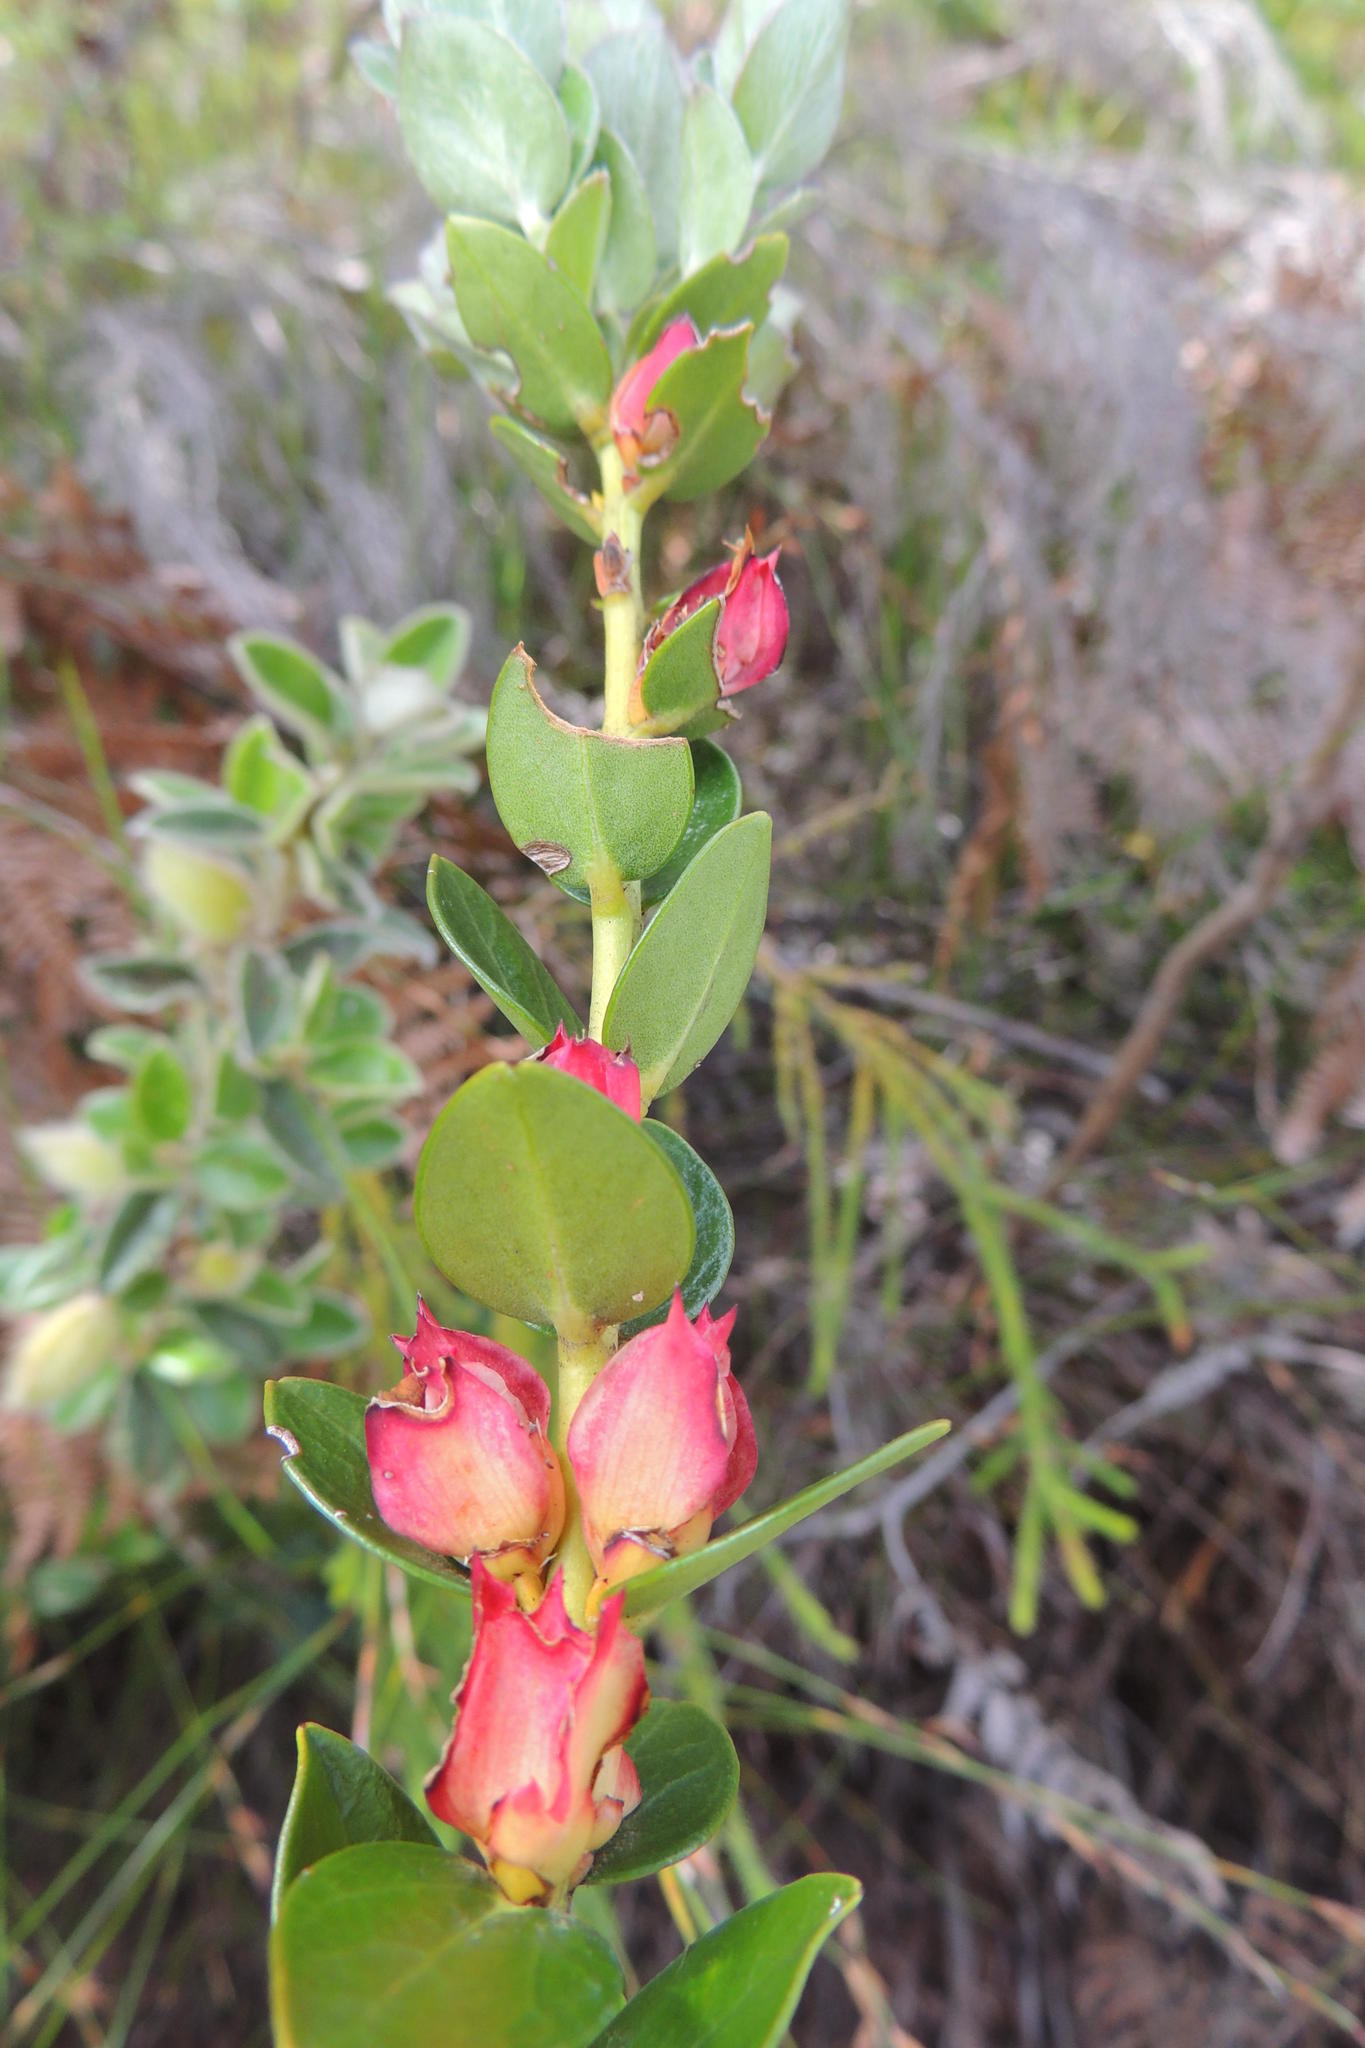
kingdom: Plantae
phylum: Tracheophyta
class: Magnoliopsida
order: Crossosomatales
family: Geissolomataceae
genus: Geissoloma
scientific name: Geissoloma marginata
